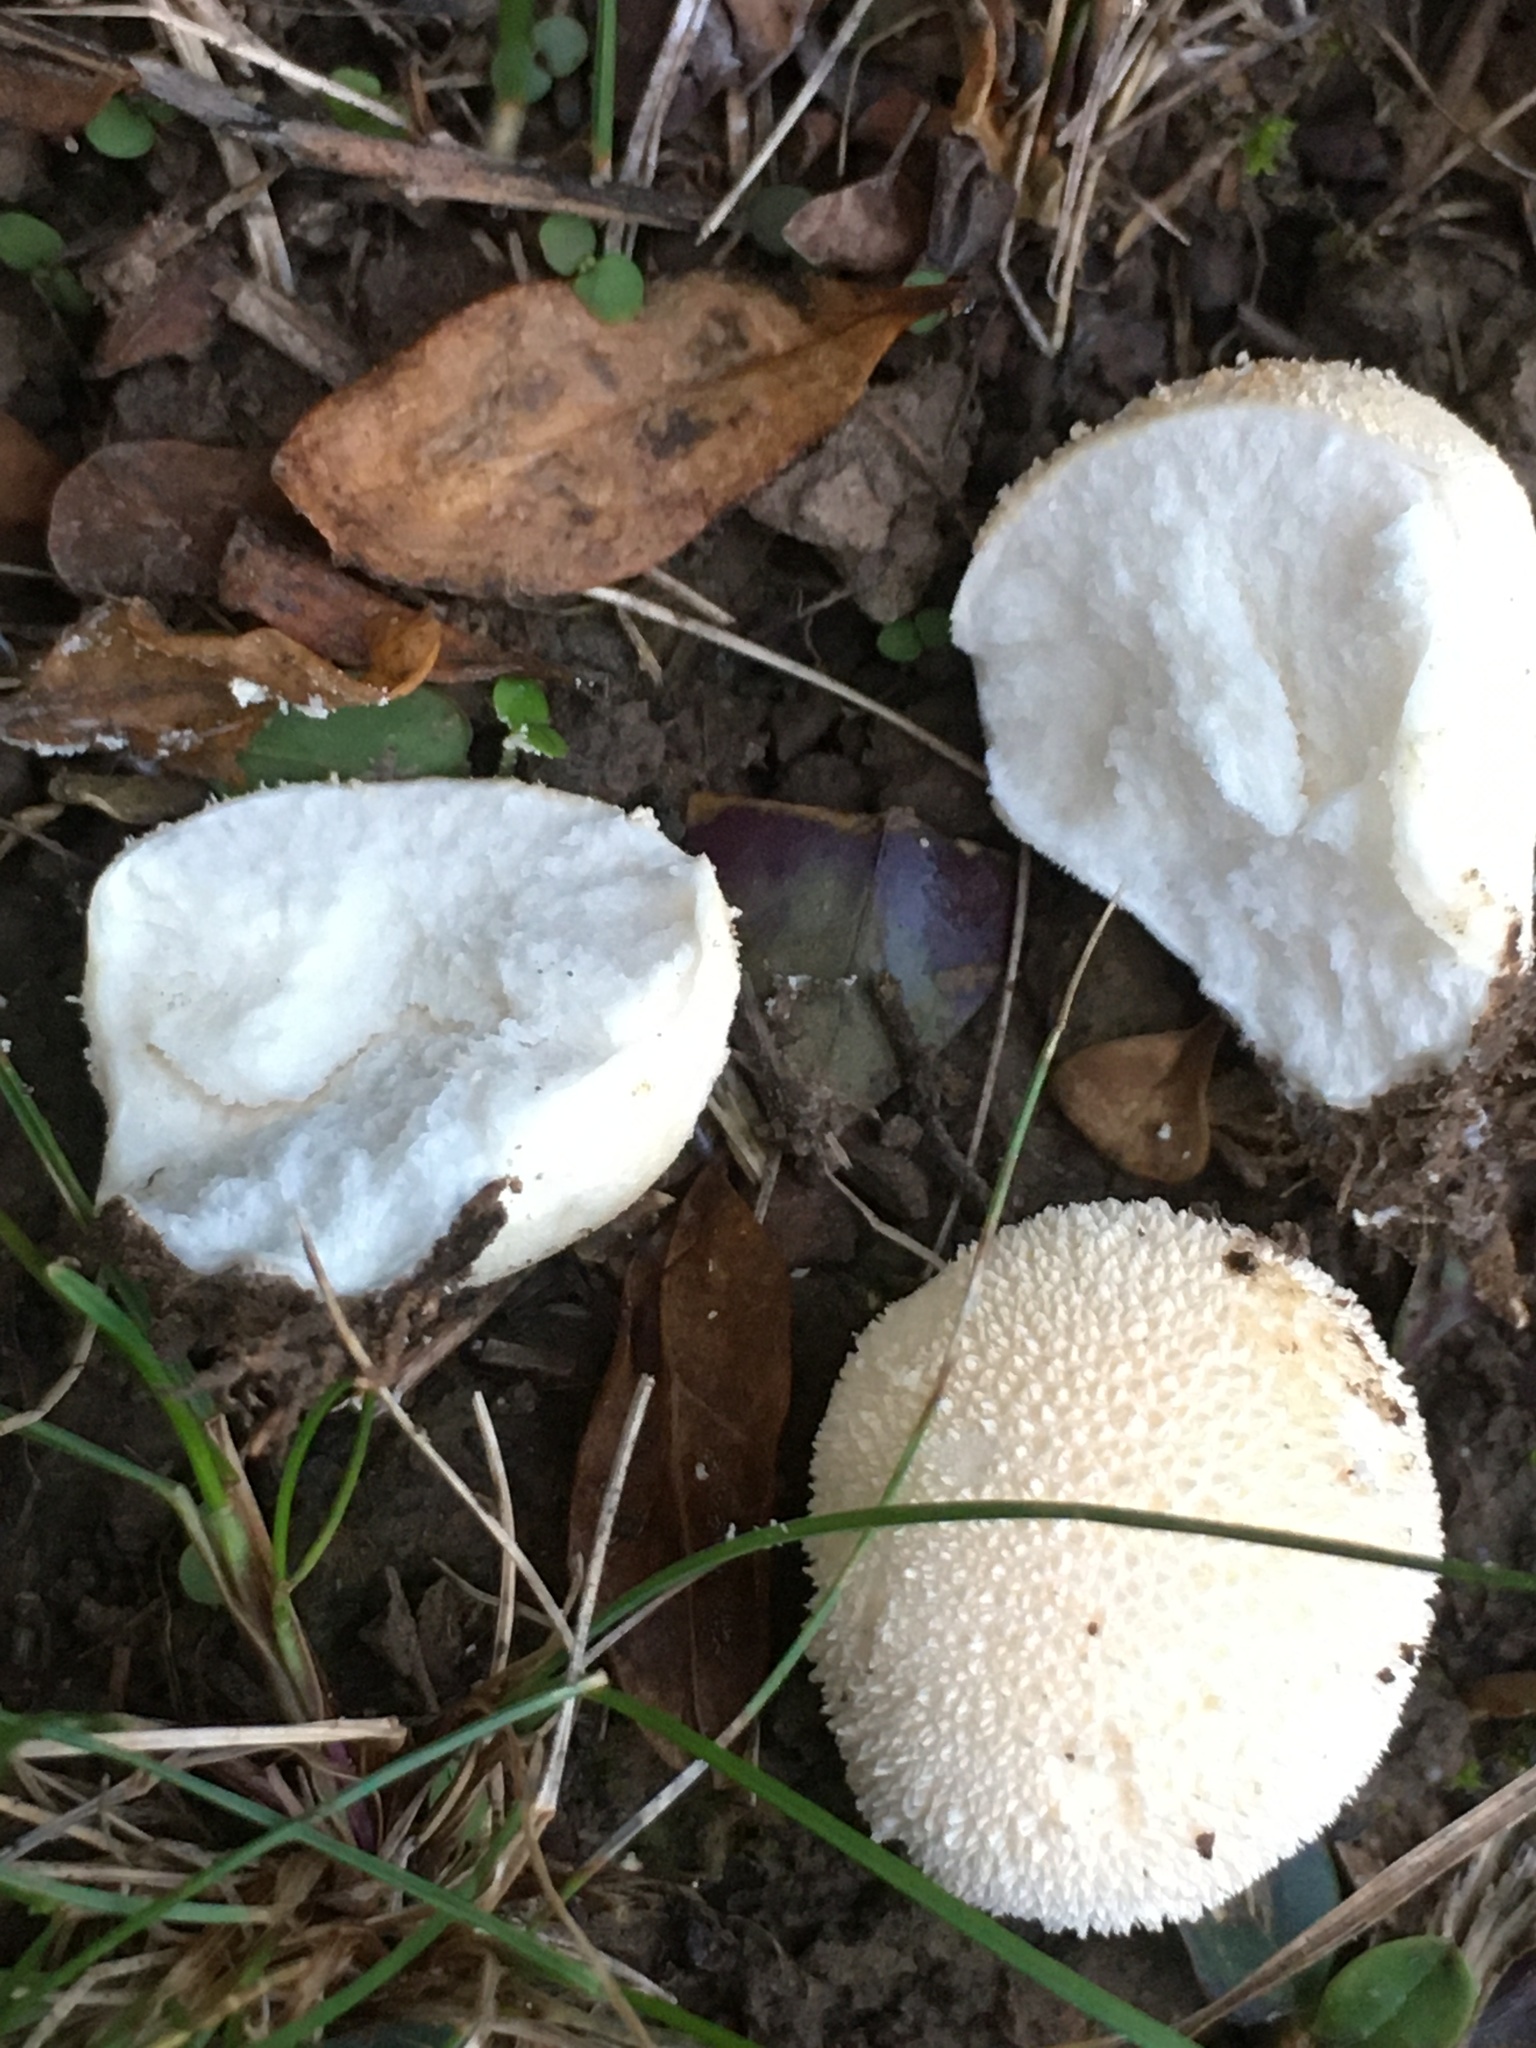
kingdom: Fungi
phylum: Basidiomycota
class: Agaricomycetes
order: Agaricales
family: Lycoperdaceae
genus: Lycoperdon
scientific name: Lycoperdon pratense
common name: Meadow puffball
